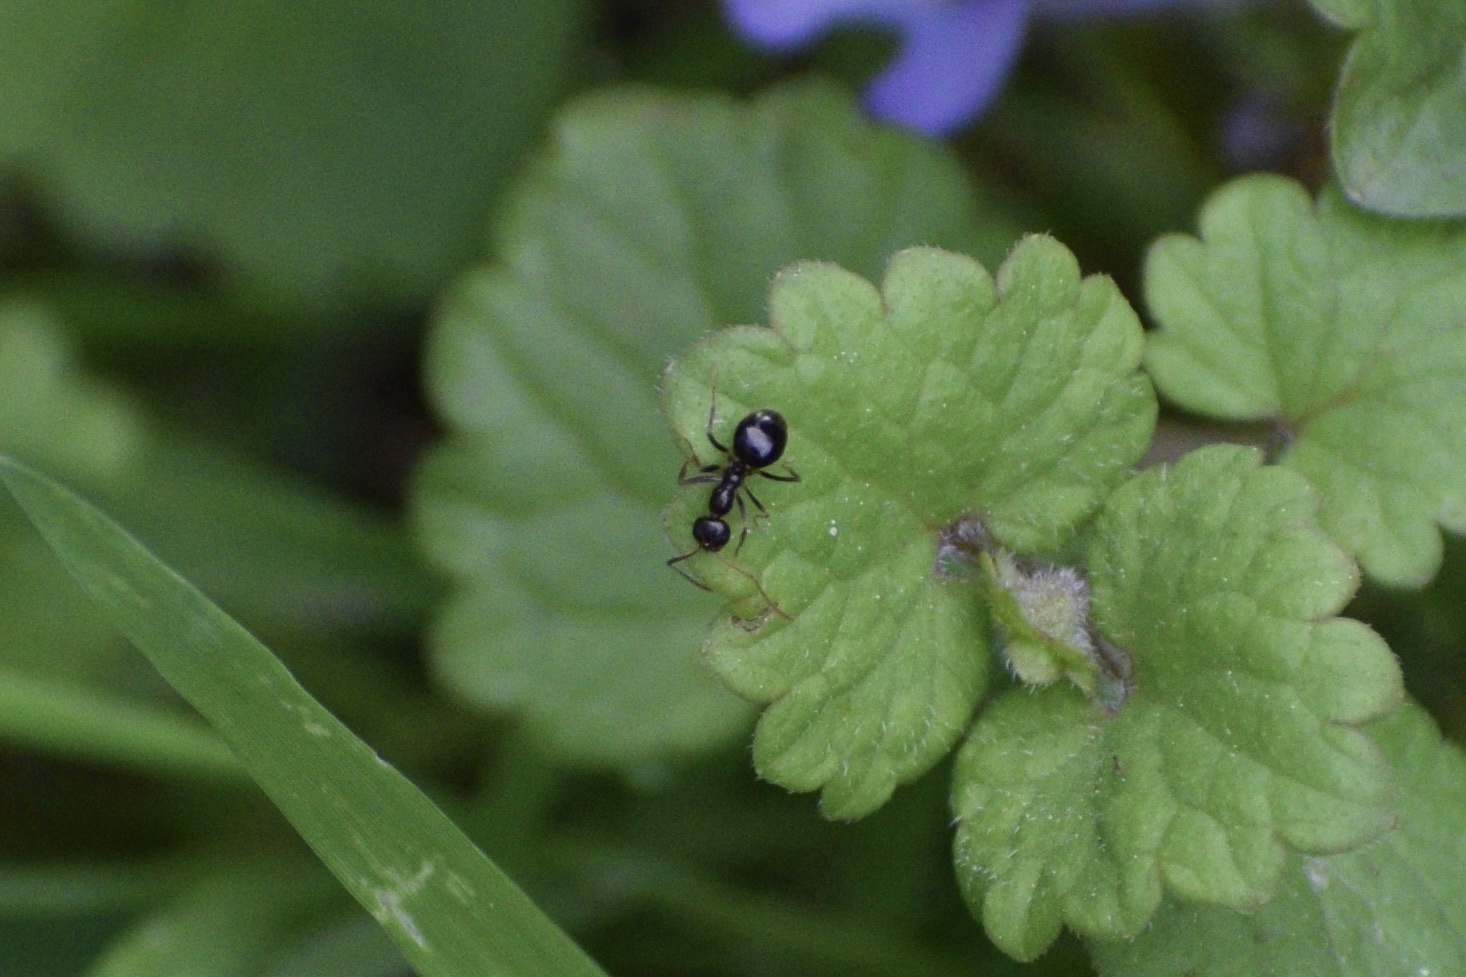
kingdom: Animalia
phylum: Arthropoda
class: Insecta
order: Hymenoptera
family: Formicidae
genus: Prenolepis
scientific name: Prenolepis imparis
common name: Small honey ant
